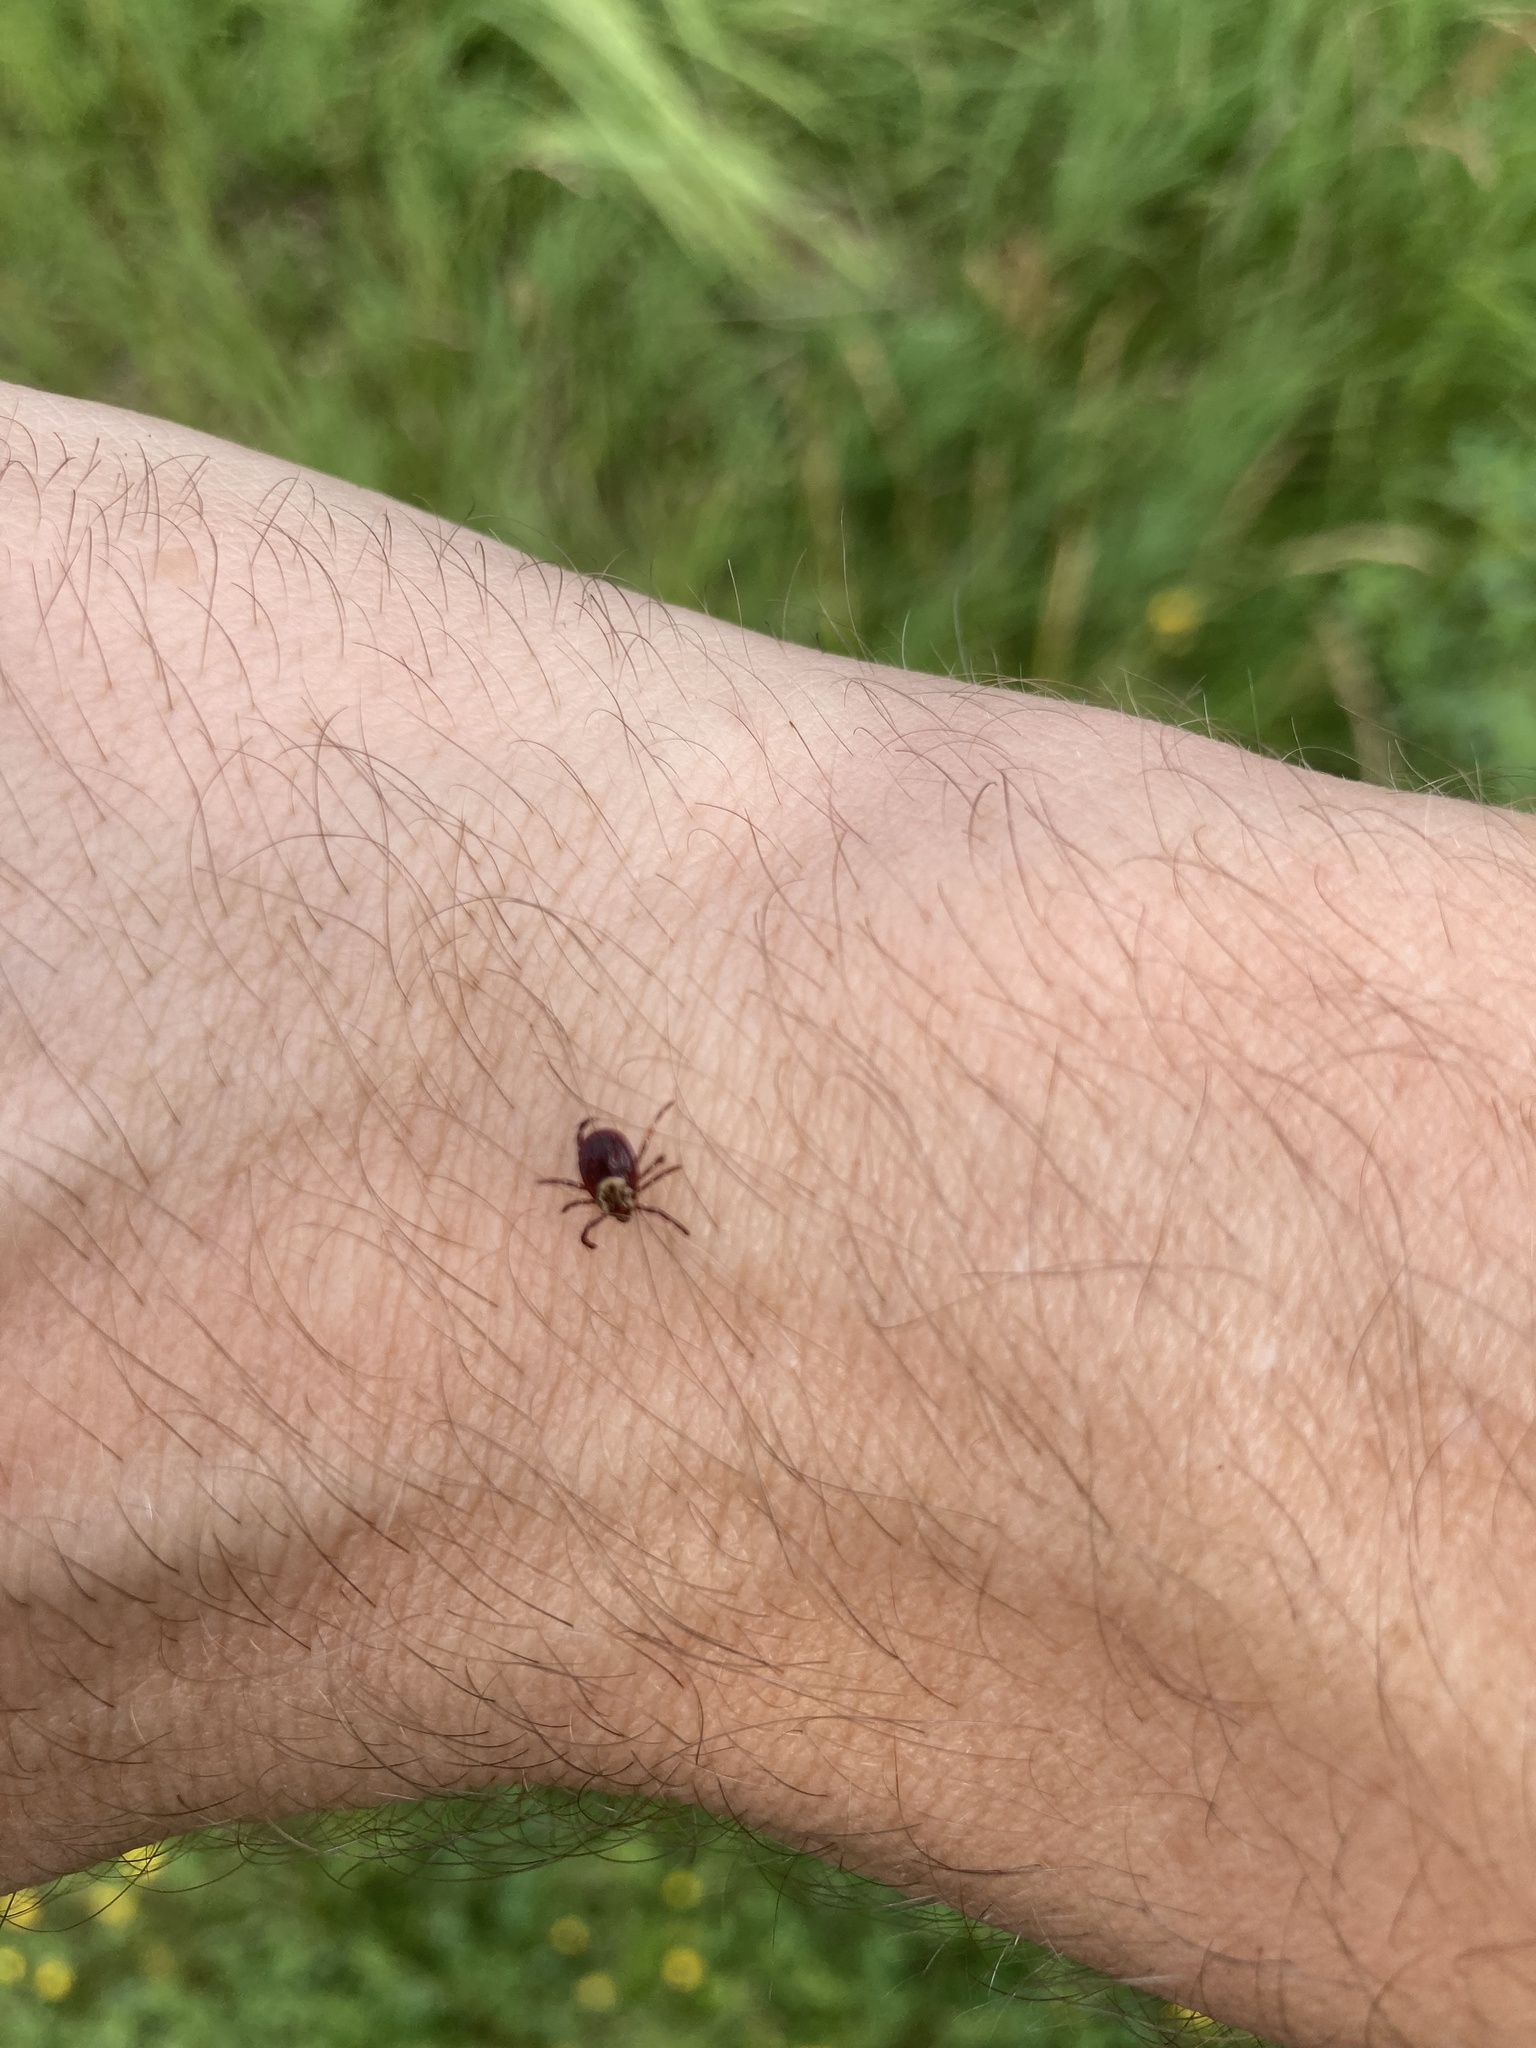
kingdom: Animalia
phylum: Arthropoda
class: Arachnida
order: Ixodida
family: Ixodidae
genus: Dermacentor
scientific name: Dermacentor variabilis
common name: American dog tick
